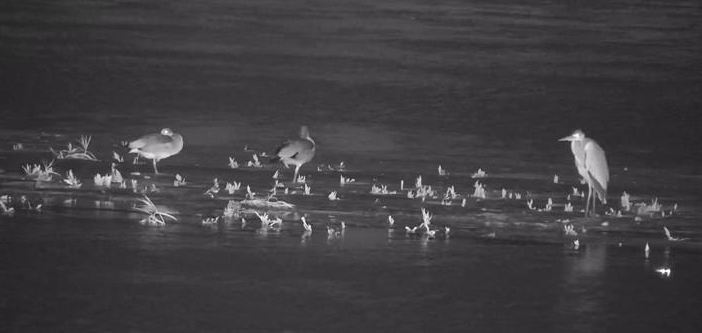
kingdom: Animalia
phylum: Chordata
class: Aves
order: Anseriformes
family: Anatidae
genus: Alopochen
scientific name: Alopochen aegyptiaca
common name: Egyptian goose
